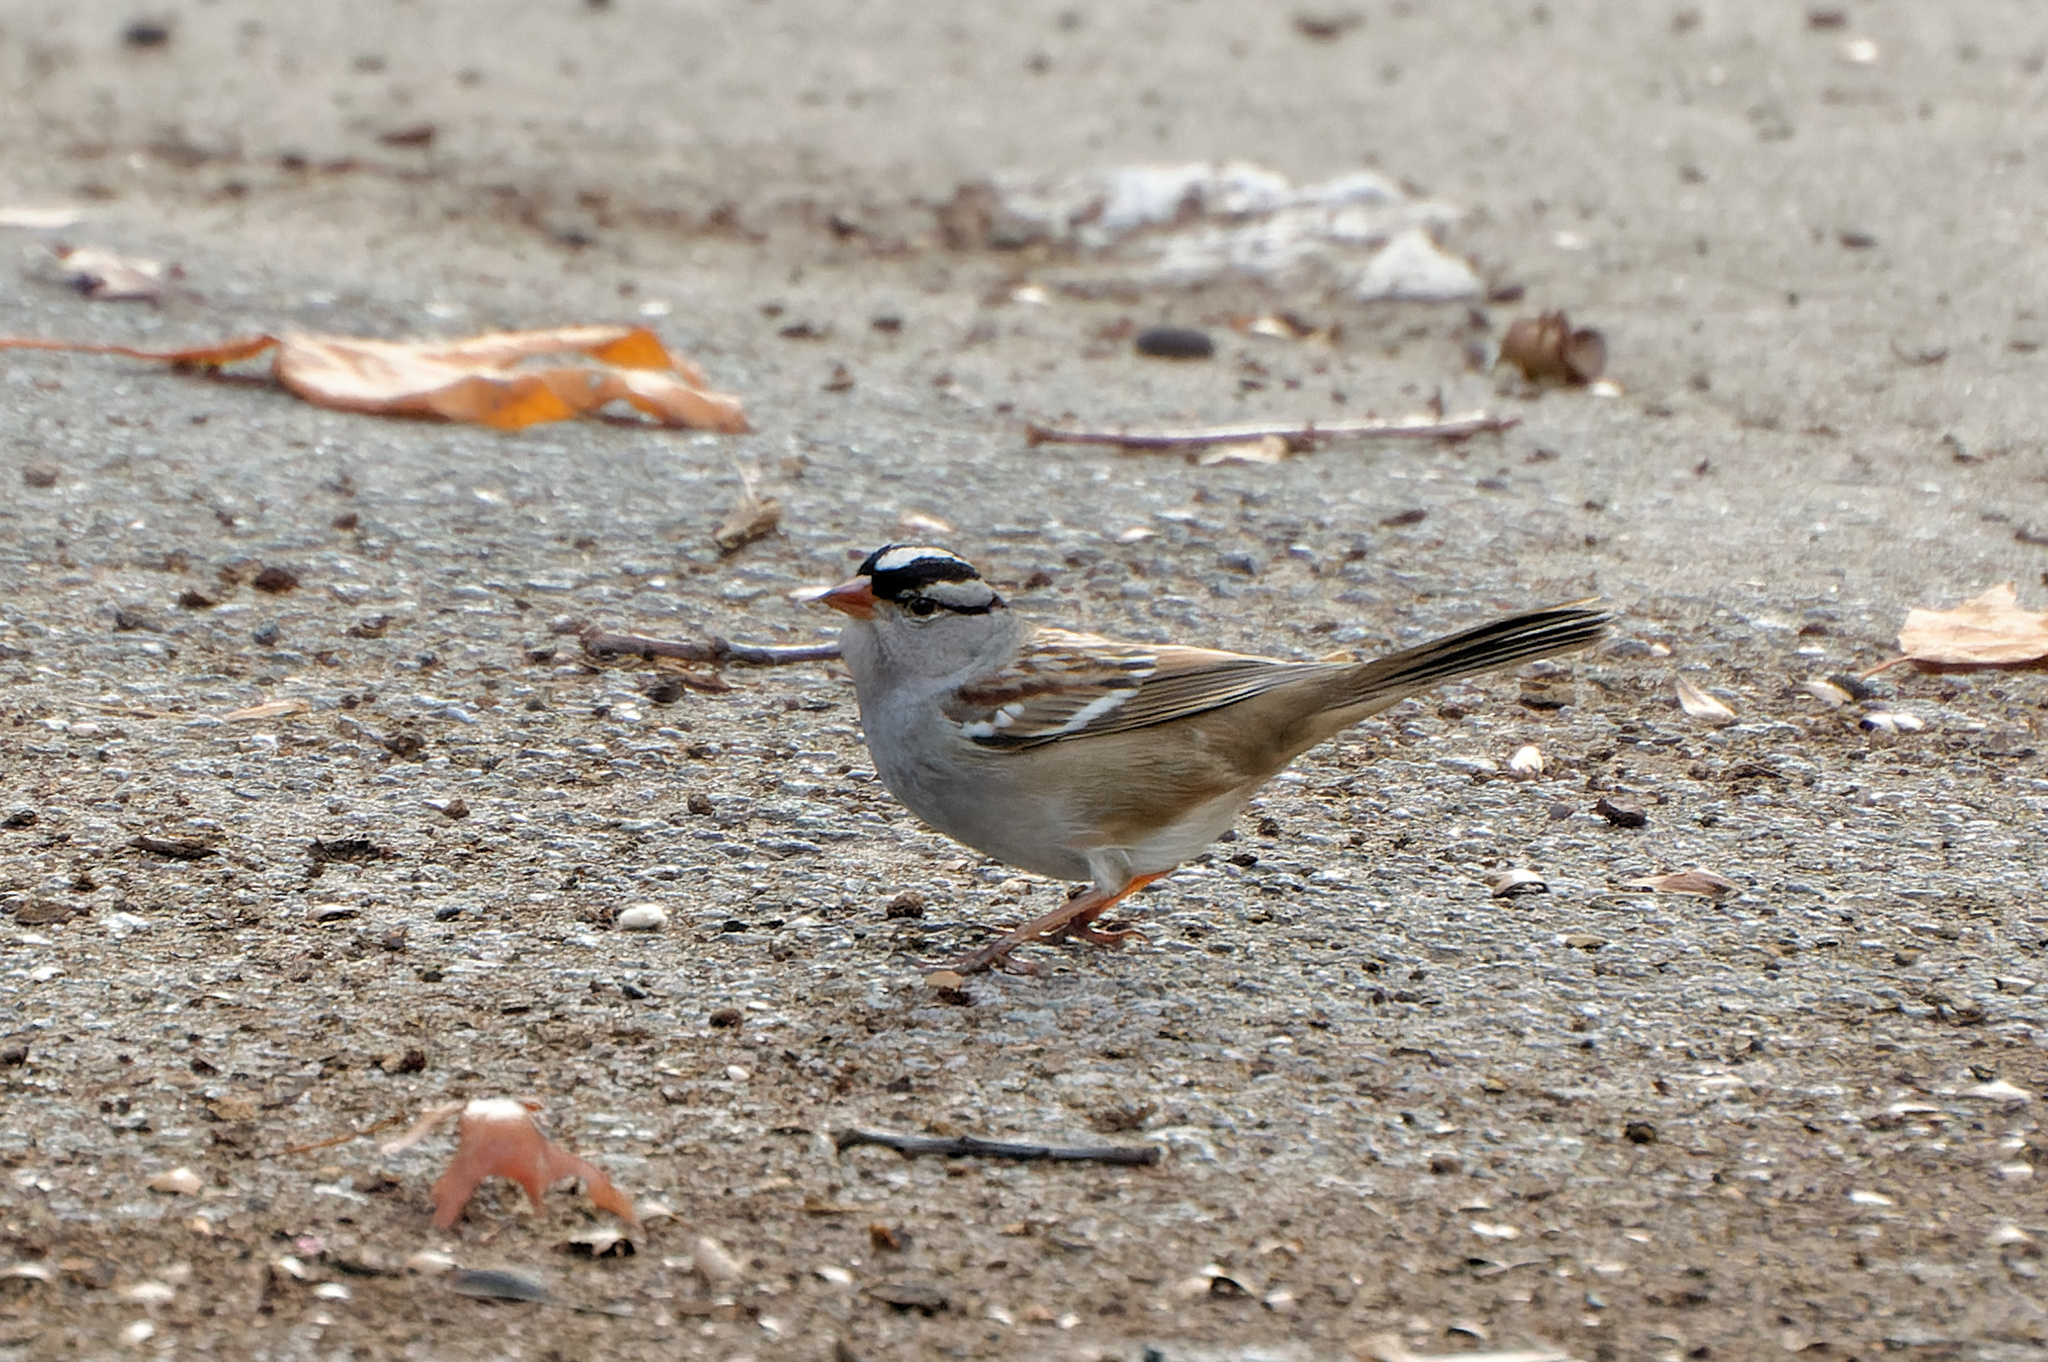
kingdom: Animalia
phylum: Chordata
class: Aves
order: Passeriformes
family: Passerellidae
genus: Zonotrichia
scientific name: Zonotrichia leucophrys
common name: White-crowned sparrow
